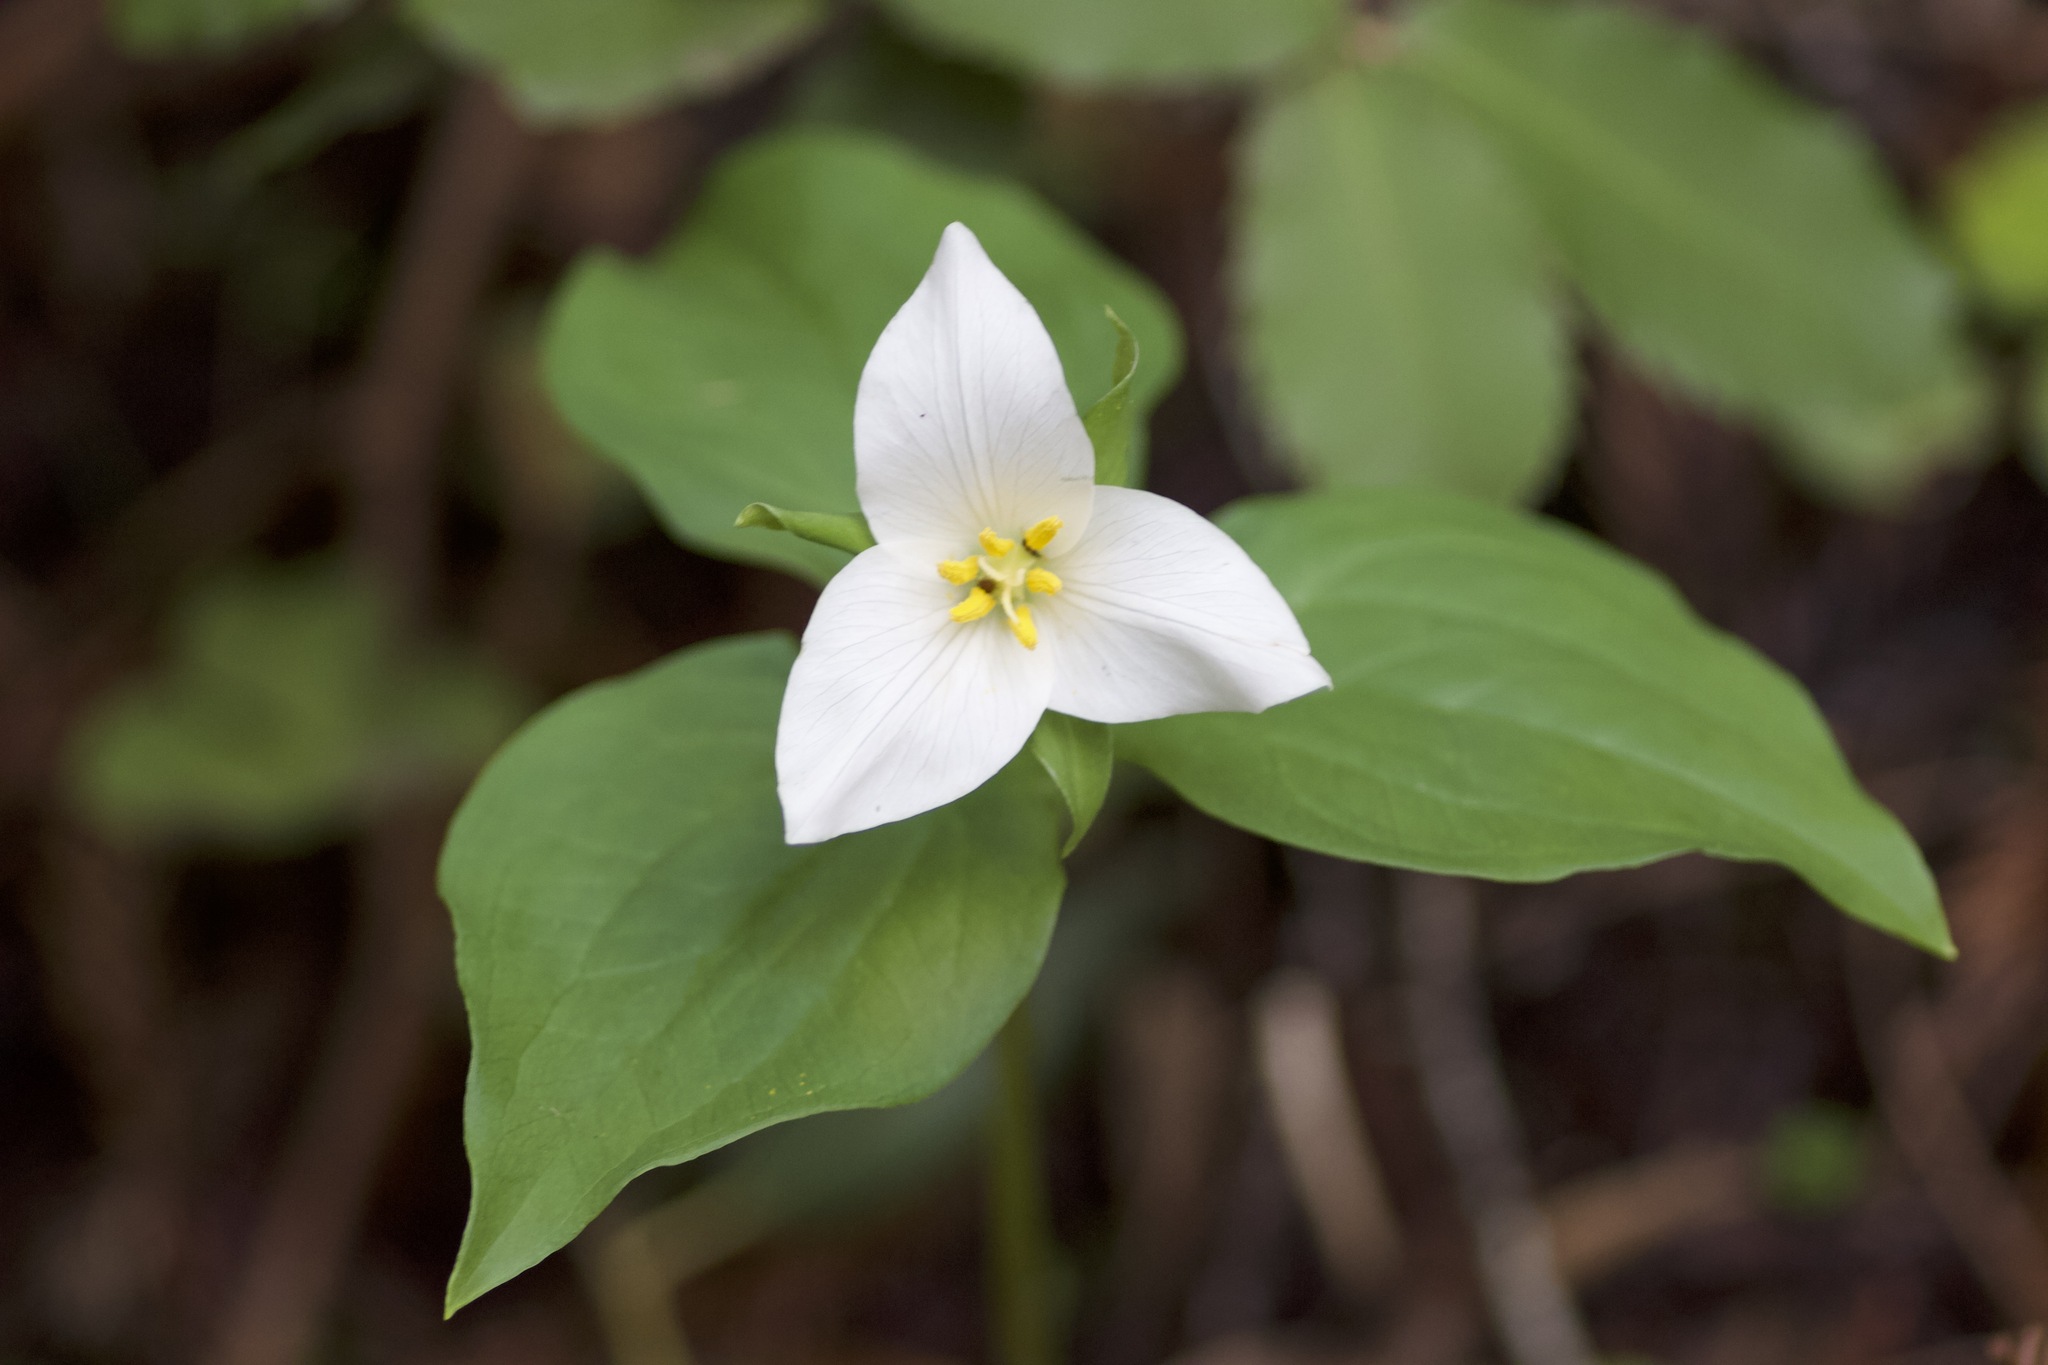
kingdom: Plantae
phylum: Tracheophyta
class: Liliopsida
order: Liliales
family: Melanthiaceae
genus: Trillium
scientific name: Trillium ovatum
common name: Pacific trillium
